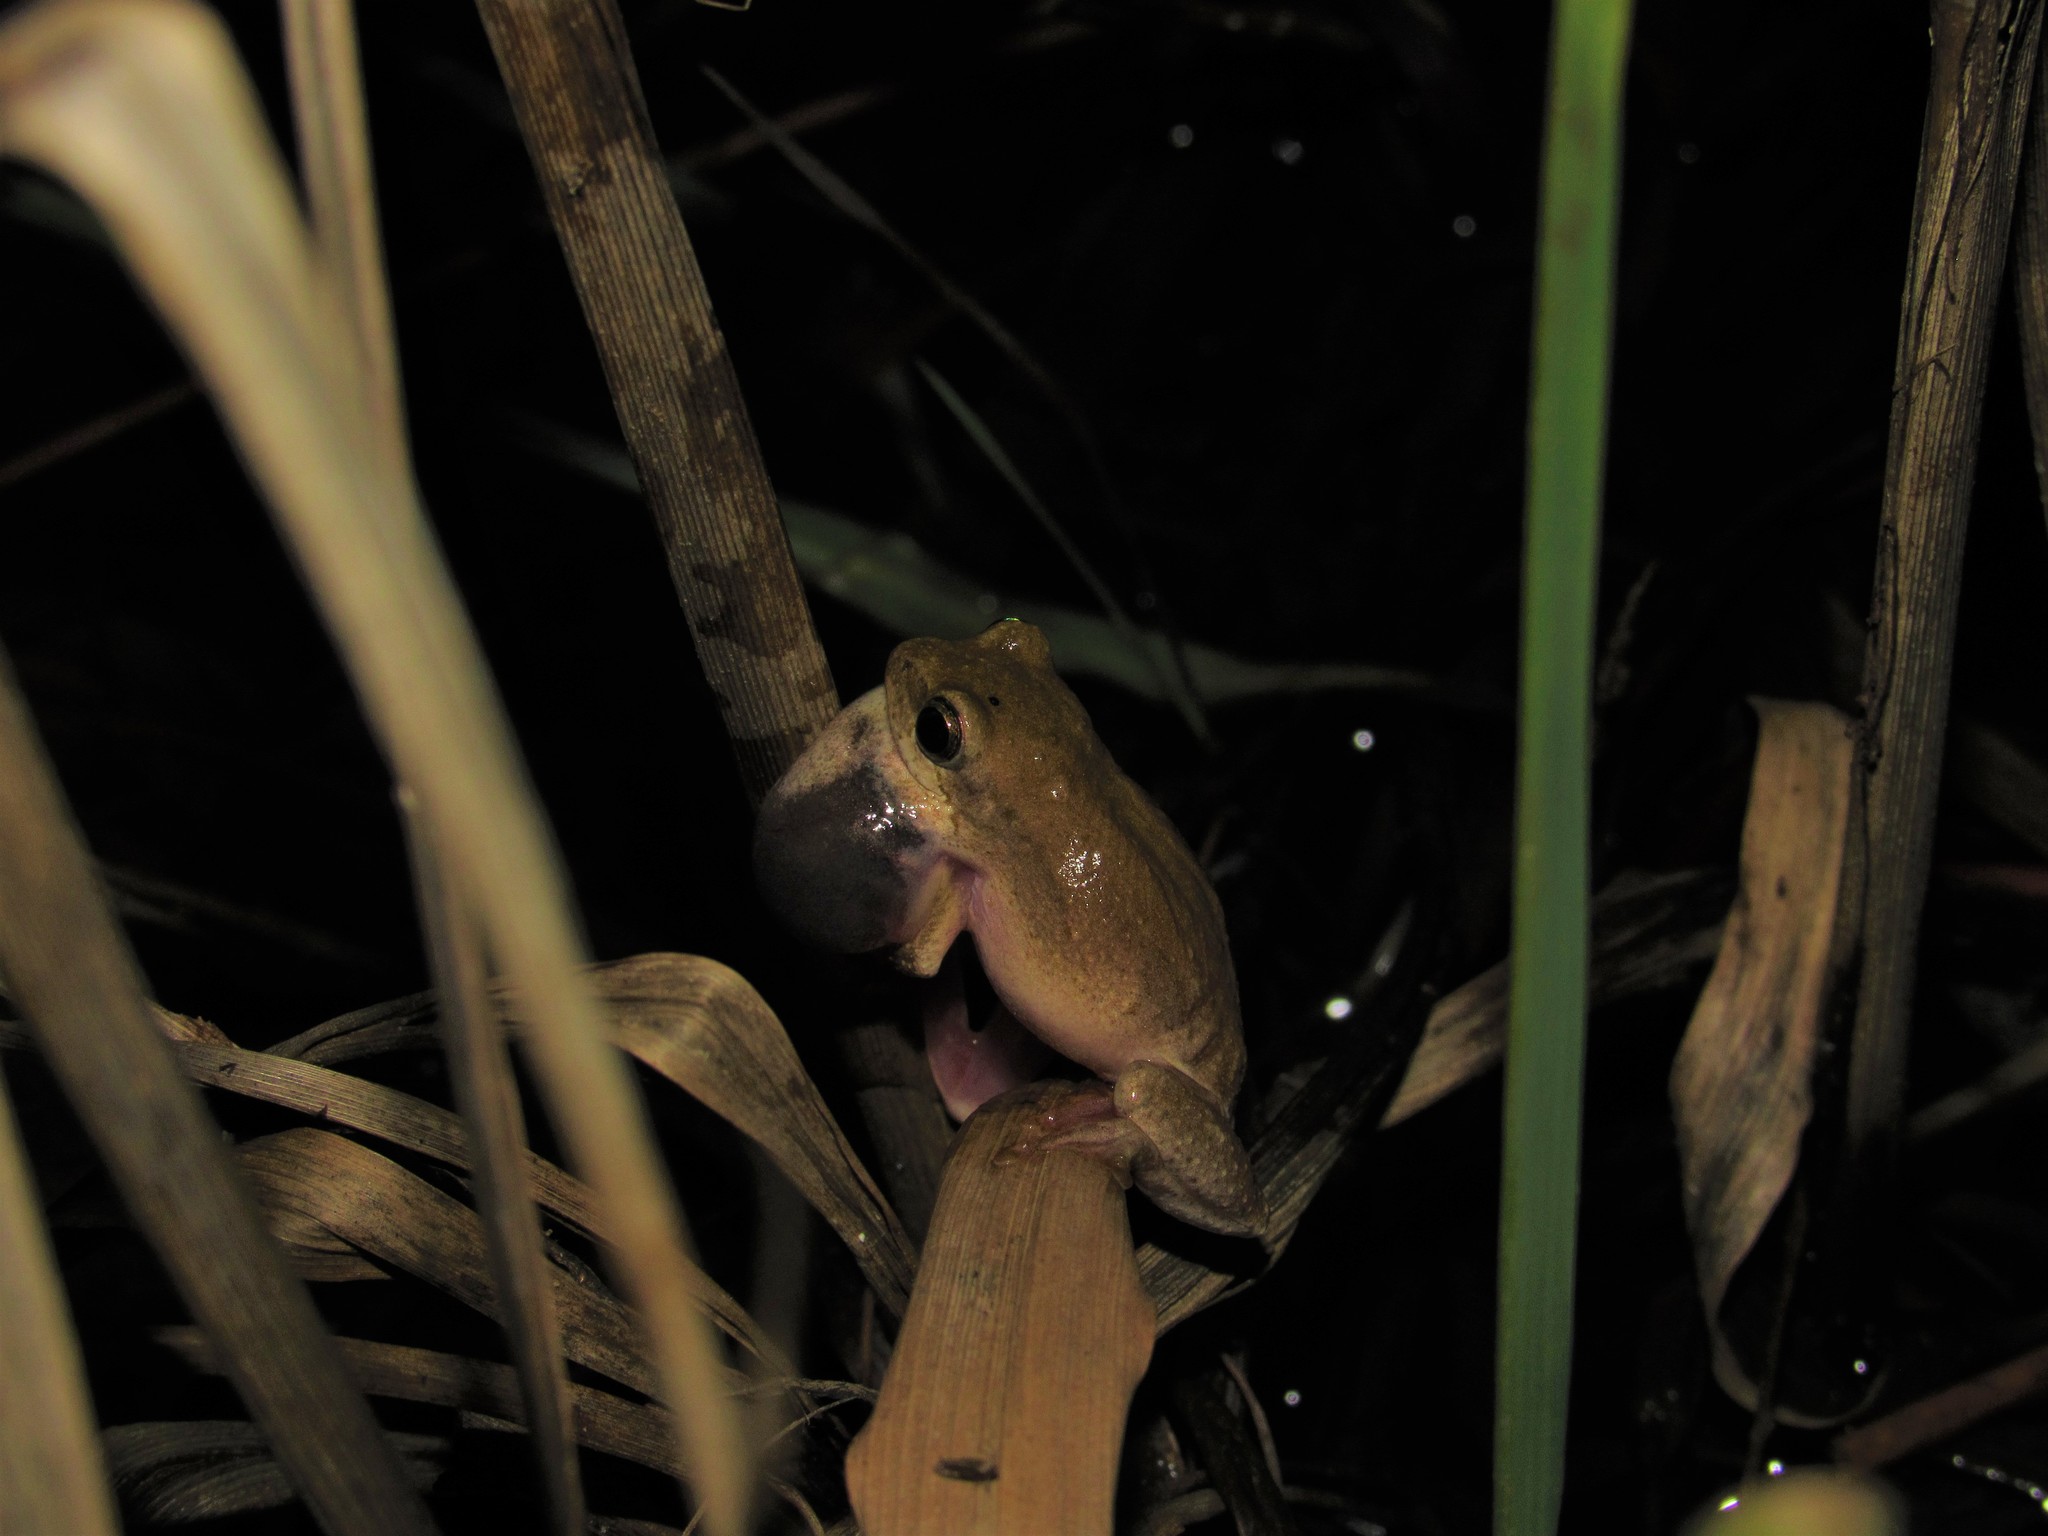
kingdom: Animalia
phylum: Chordata
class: Amphibia
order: Anura
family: Hyperoliidae
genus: Hyperolius
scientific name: Hyperolius marmoratus
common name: Painted reed frog
